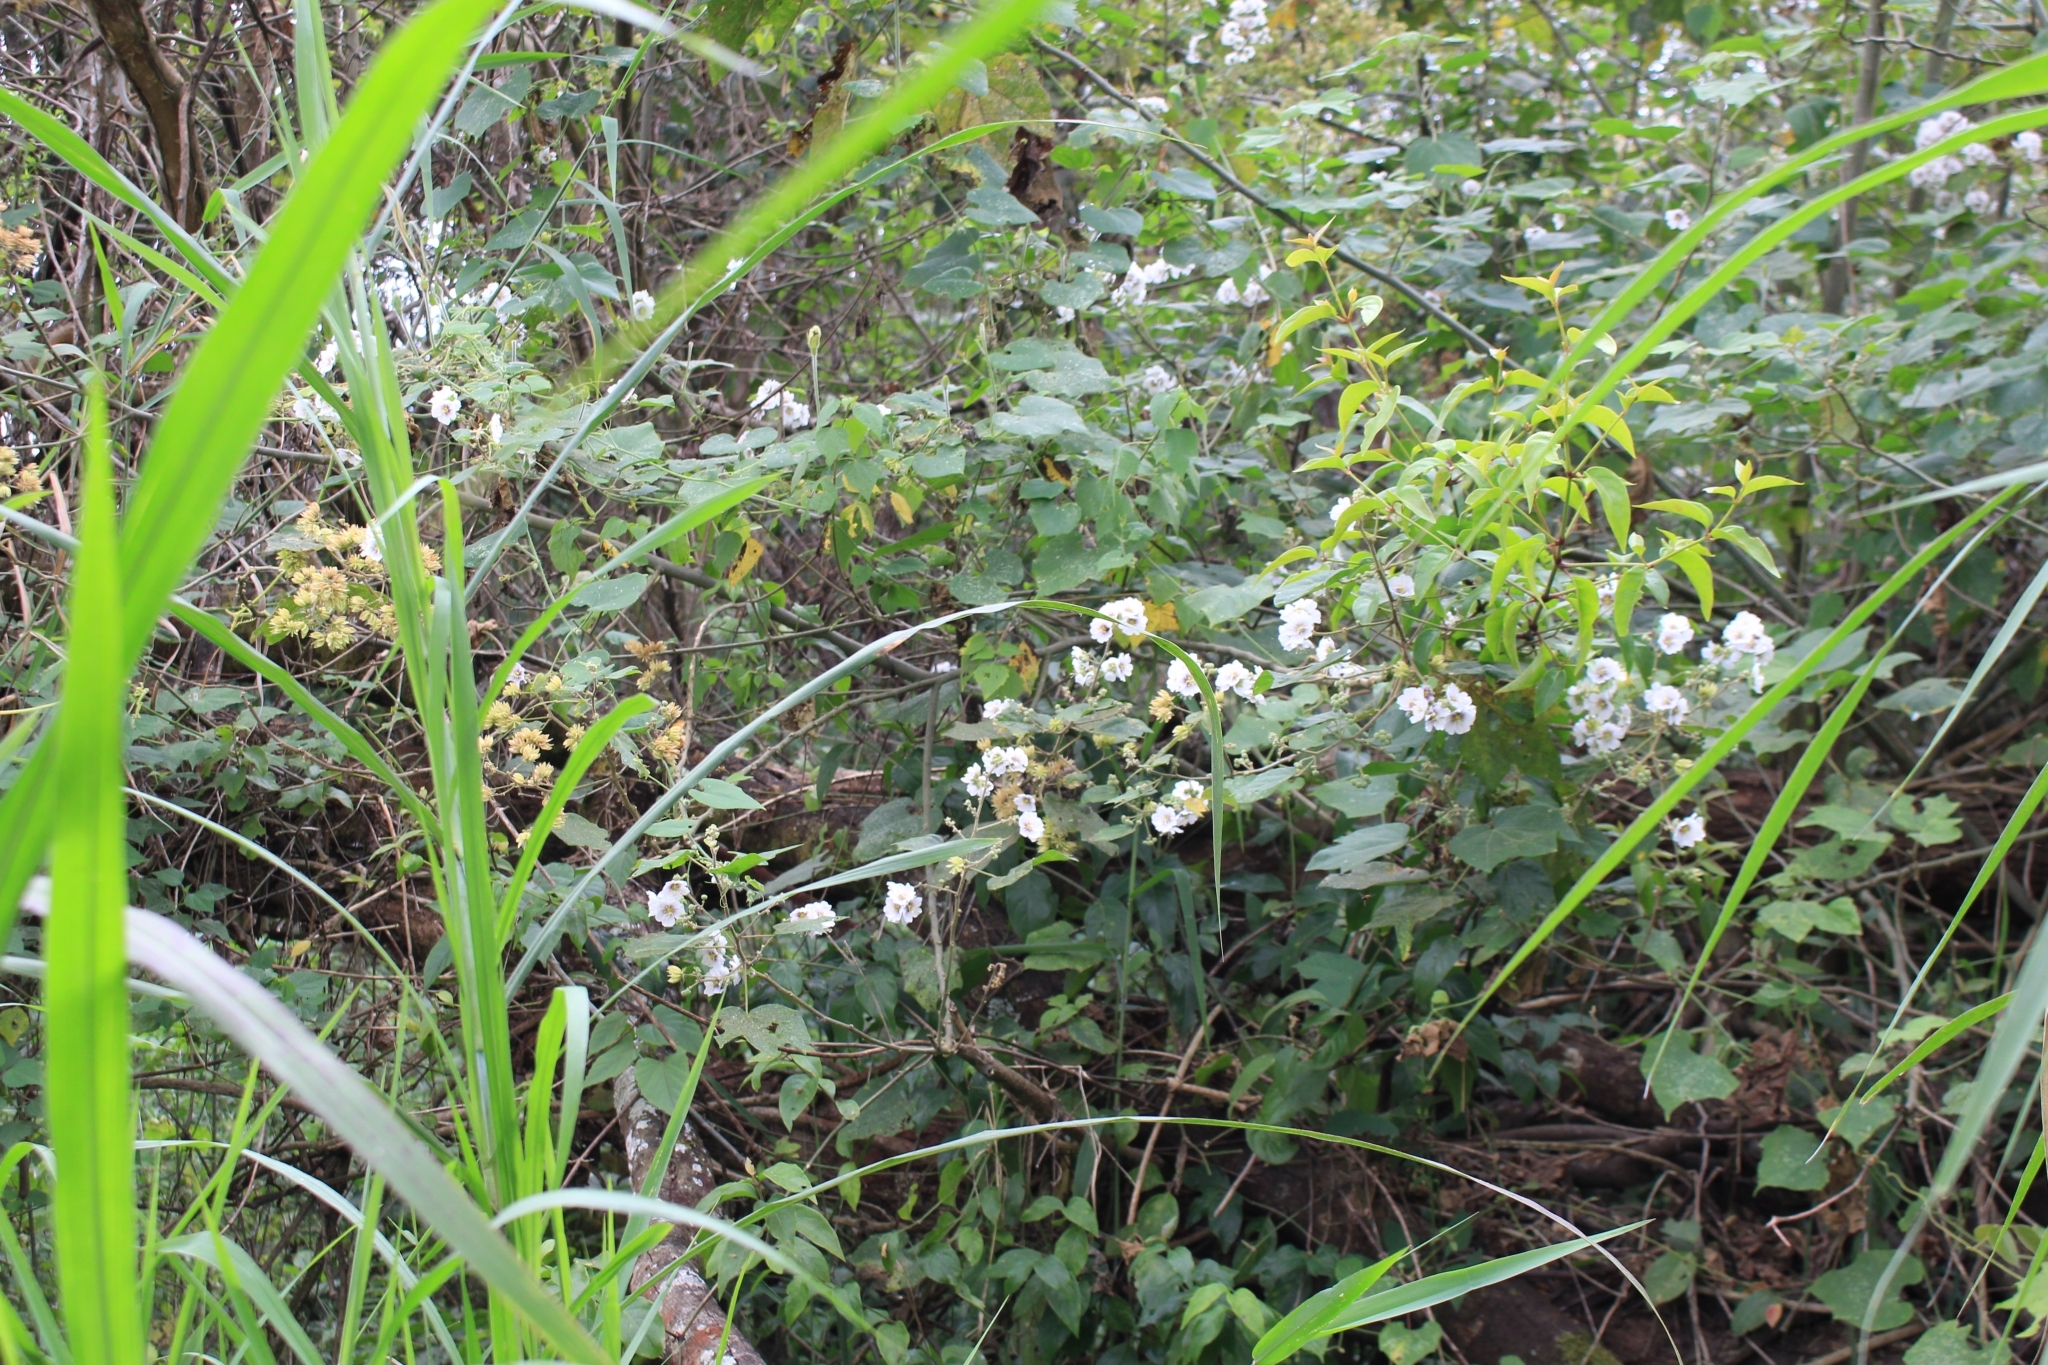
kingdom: Plantae
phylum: Tracheophyta
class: Magnoliopsida
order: Malvales
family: Malvaceae
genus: Robinsonella
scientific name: Robinsonella lindeniana
